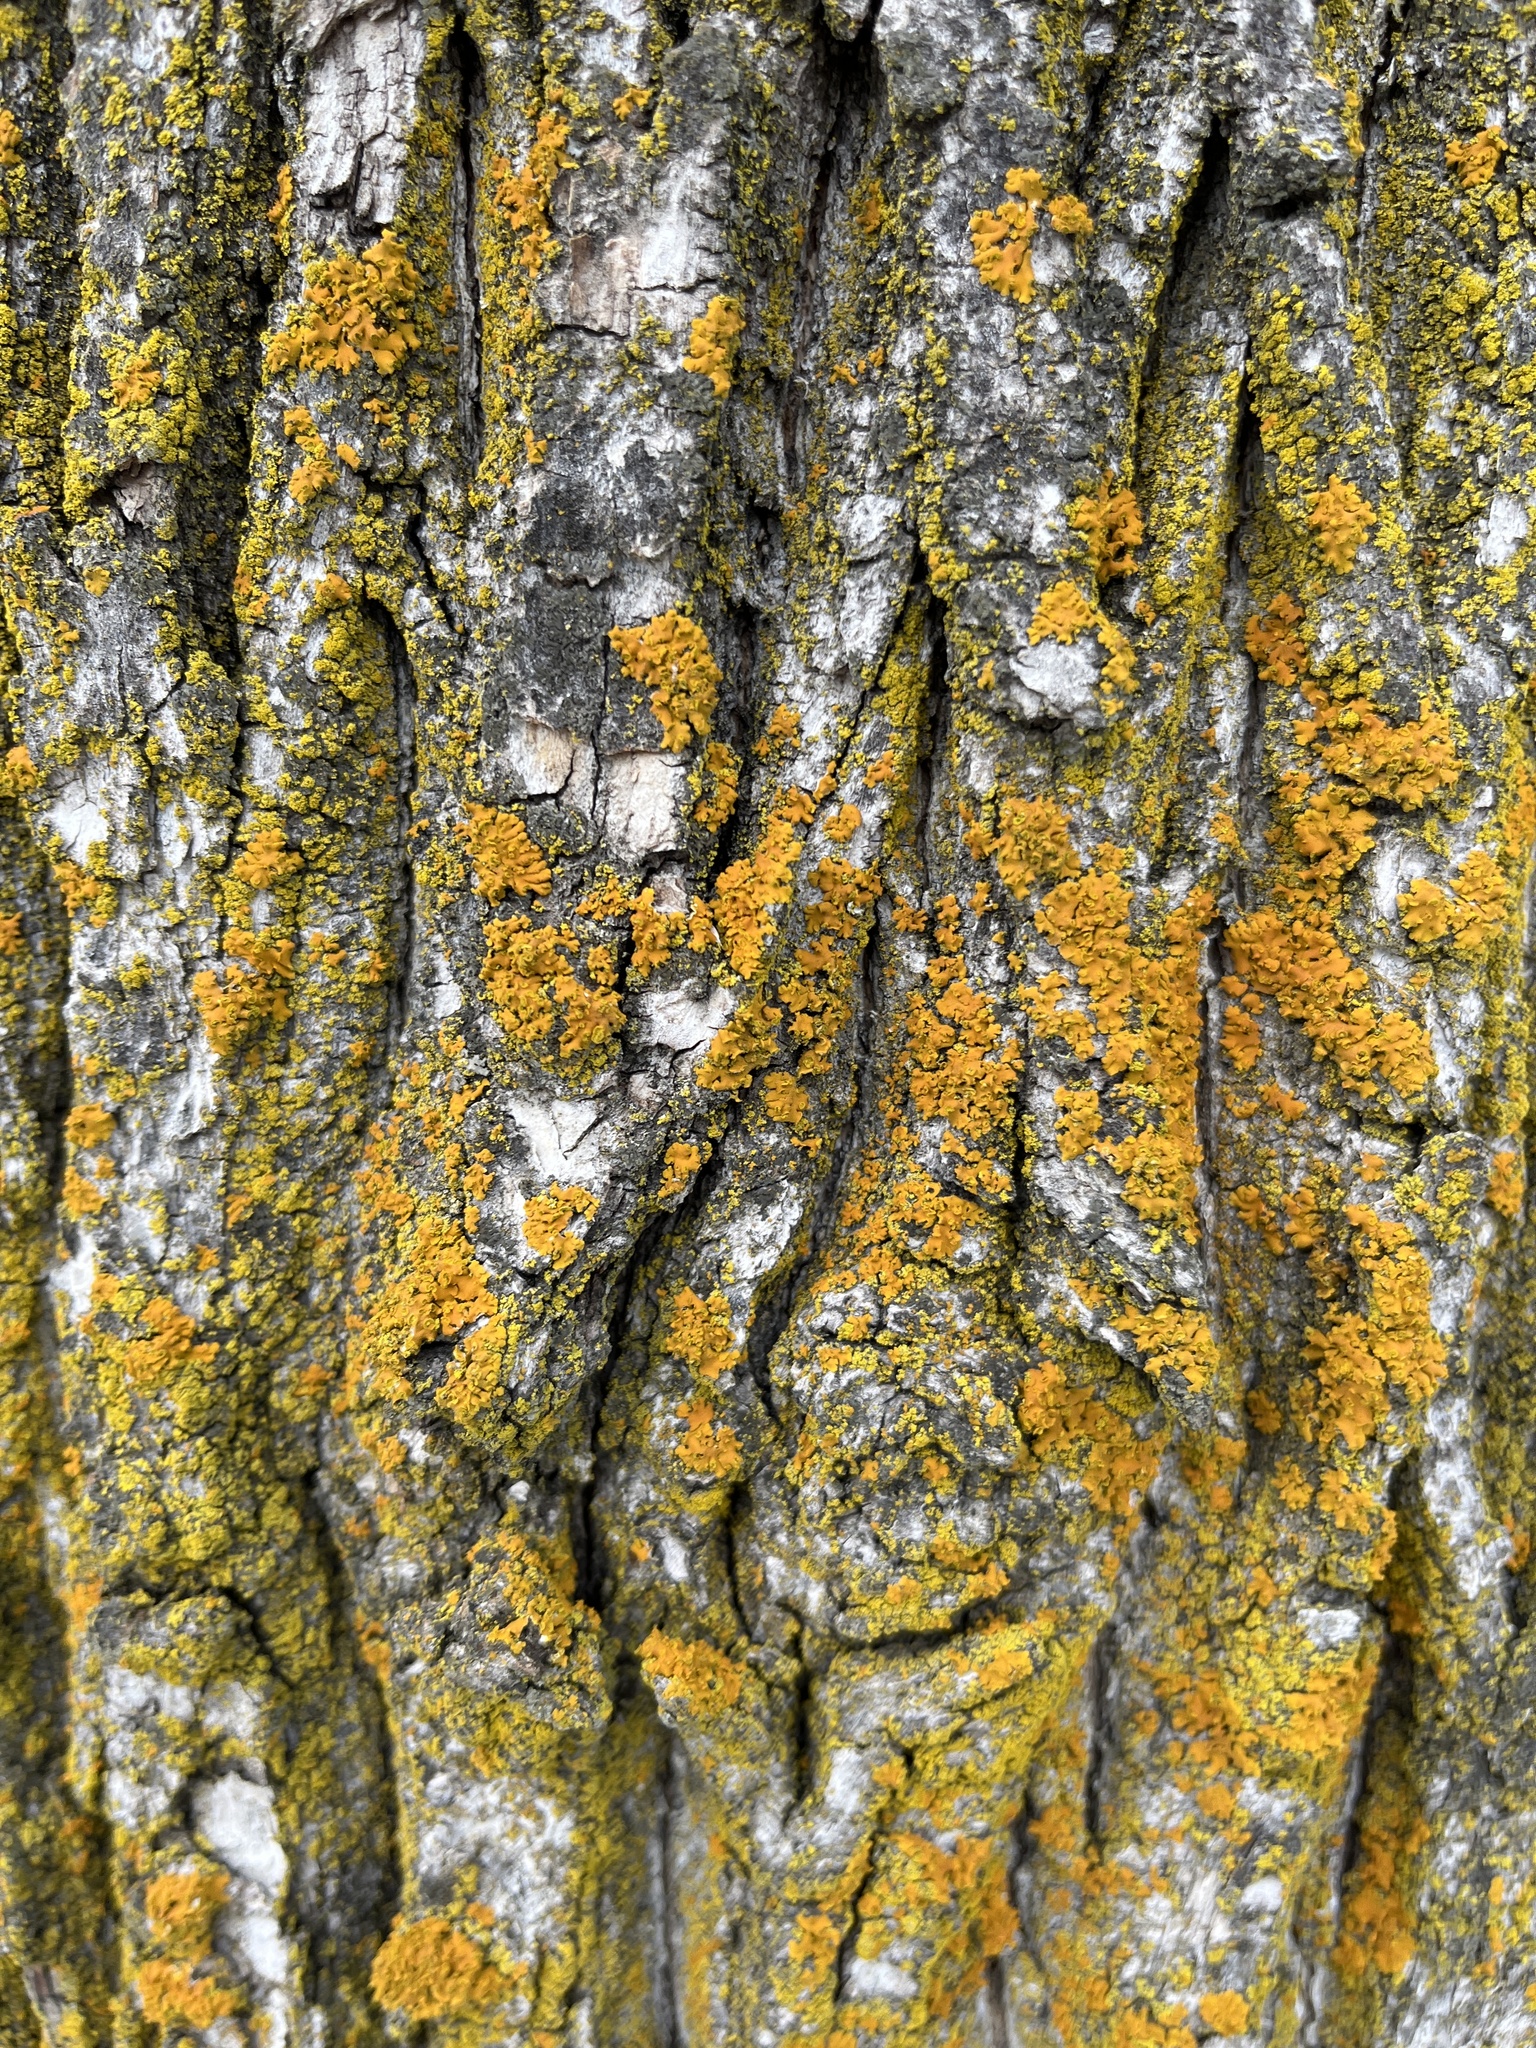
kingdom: Fungi
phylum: Ascomycota
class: Lecanoromycetes
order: Teloschistales
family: Teloschistaceae
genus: Oxneria
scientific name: Oxneria fallax
